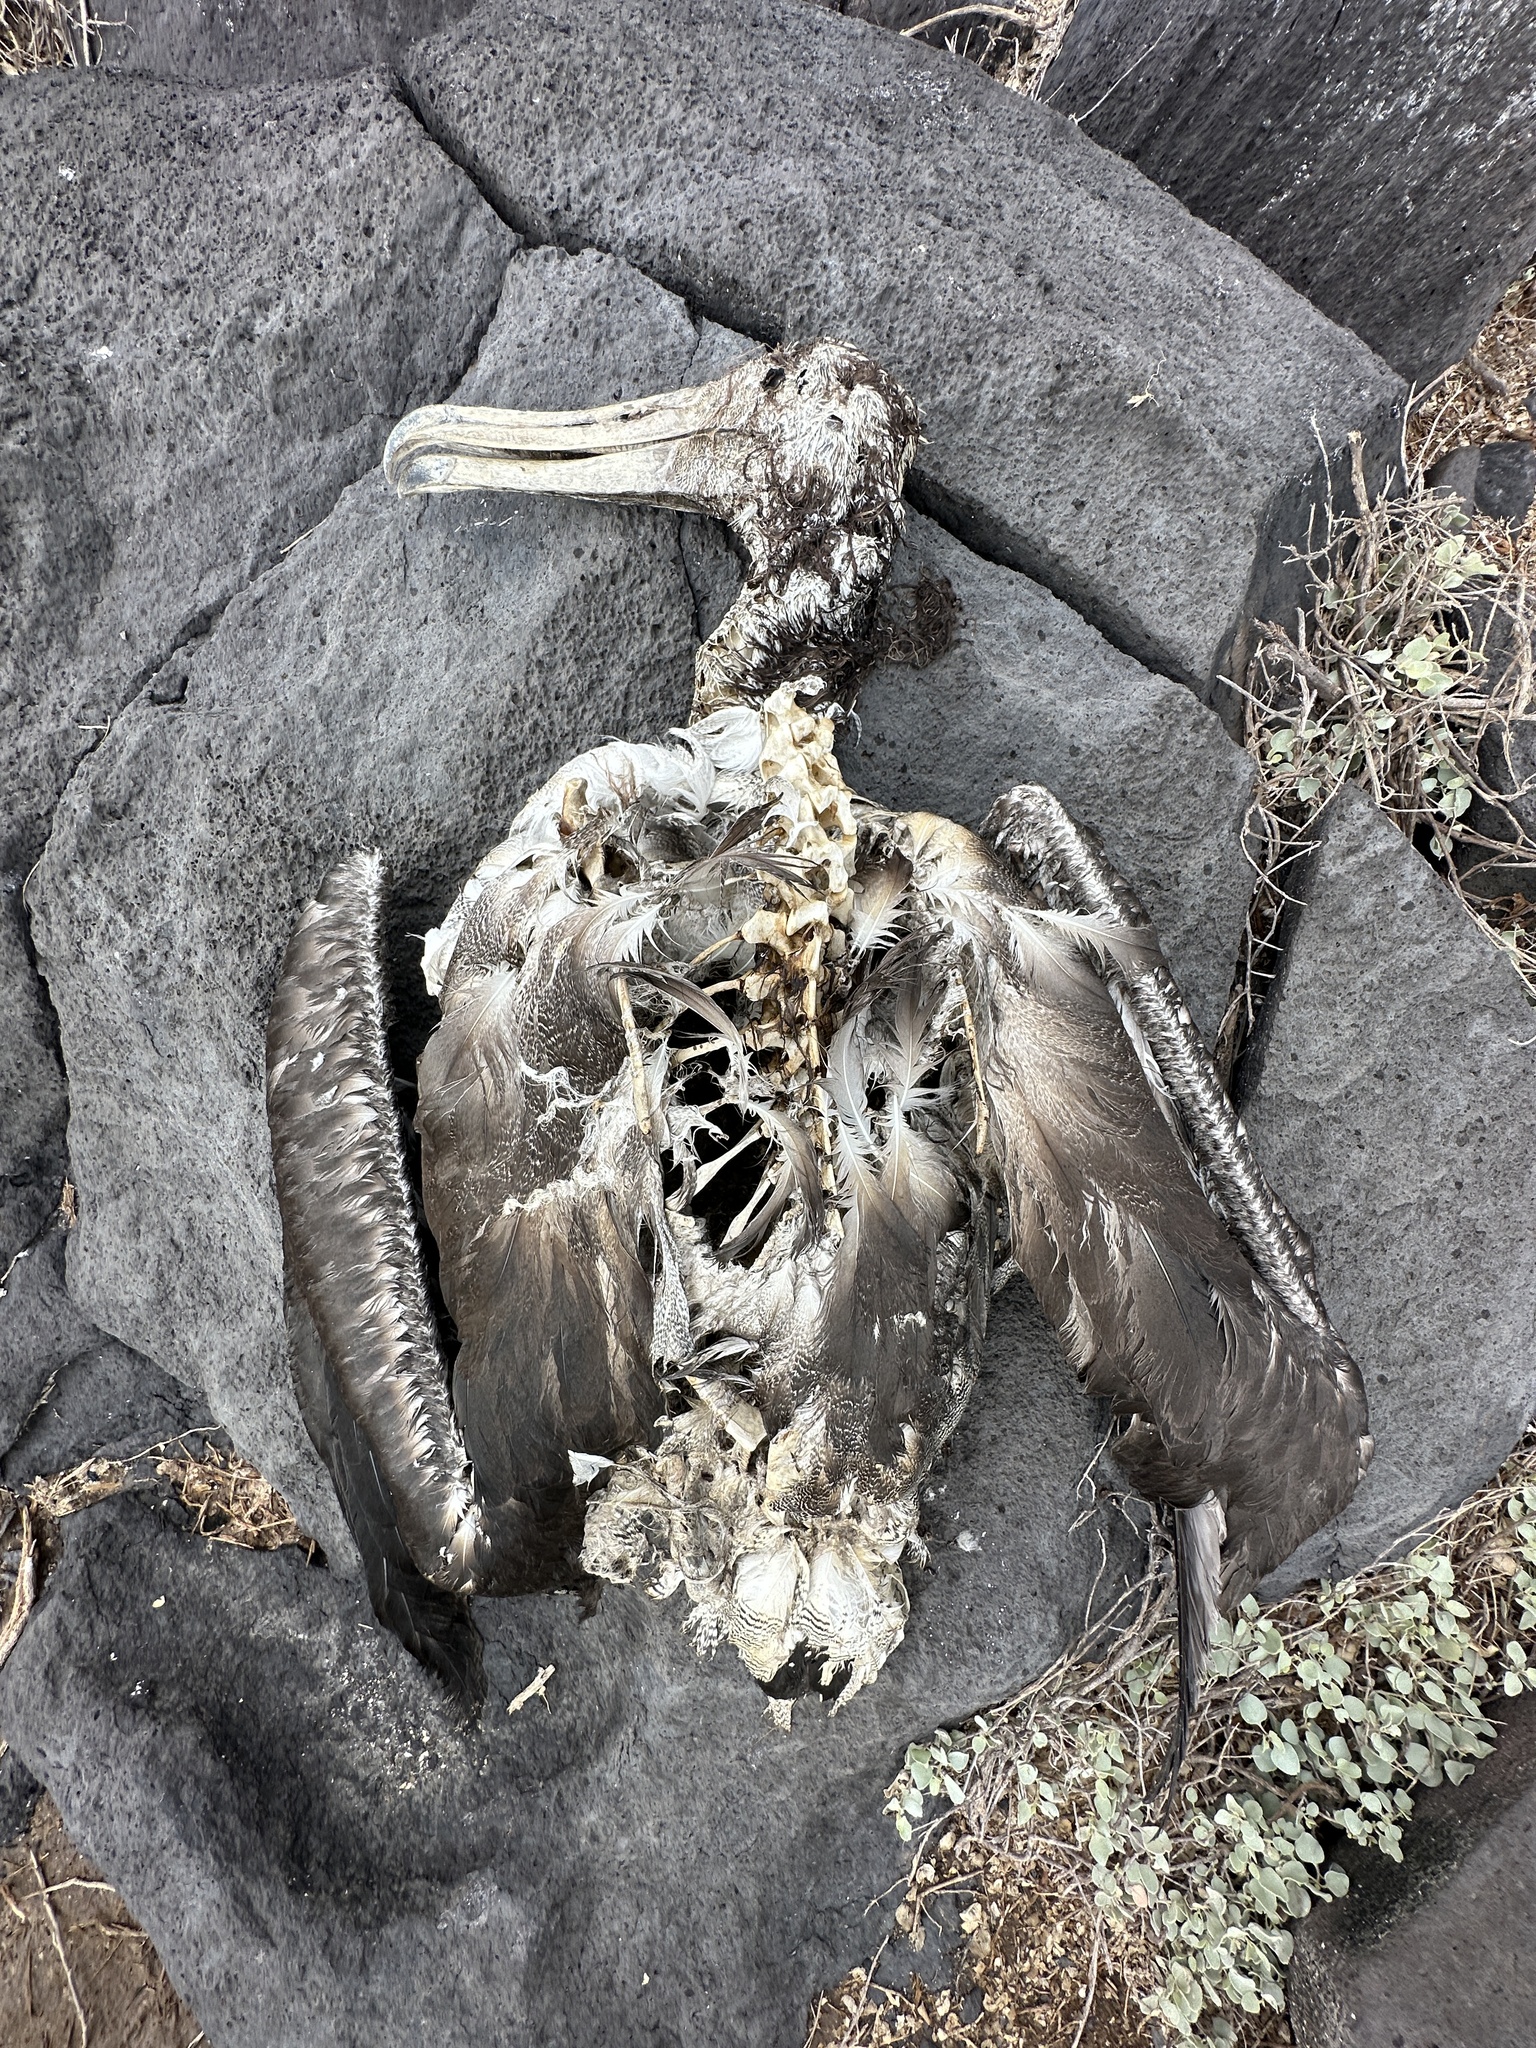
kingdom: Animalia
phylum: Chordata
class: Aves
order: Procellariiformes
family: Diomedeidae
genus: Phoebastria
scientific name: Phoebastria irrorata
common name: Waved albatross
